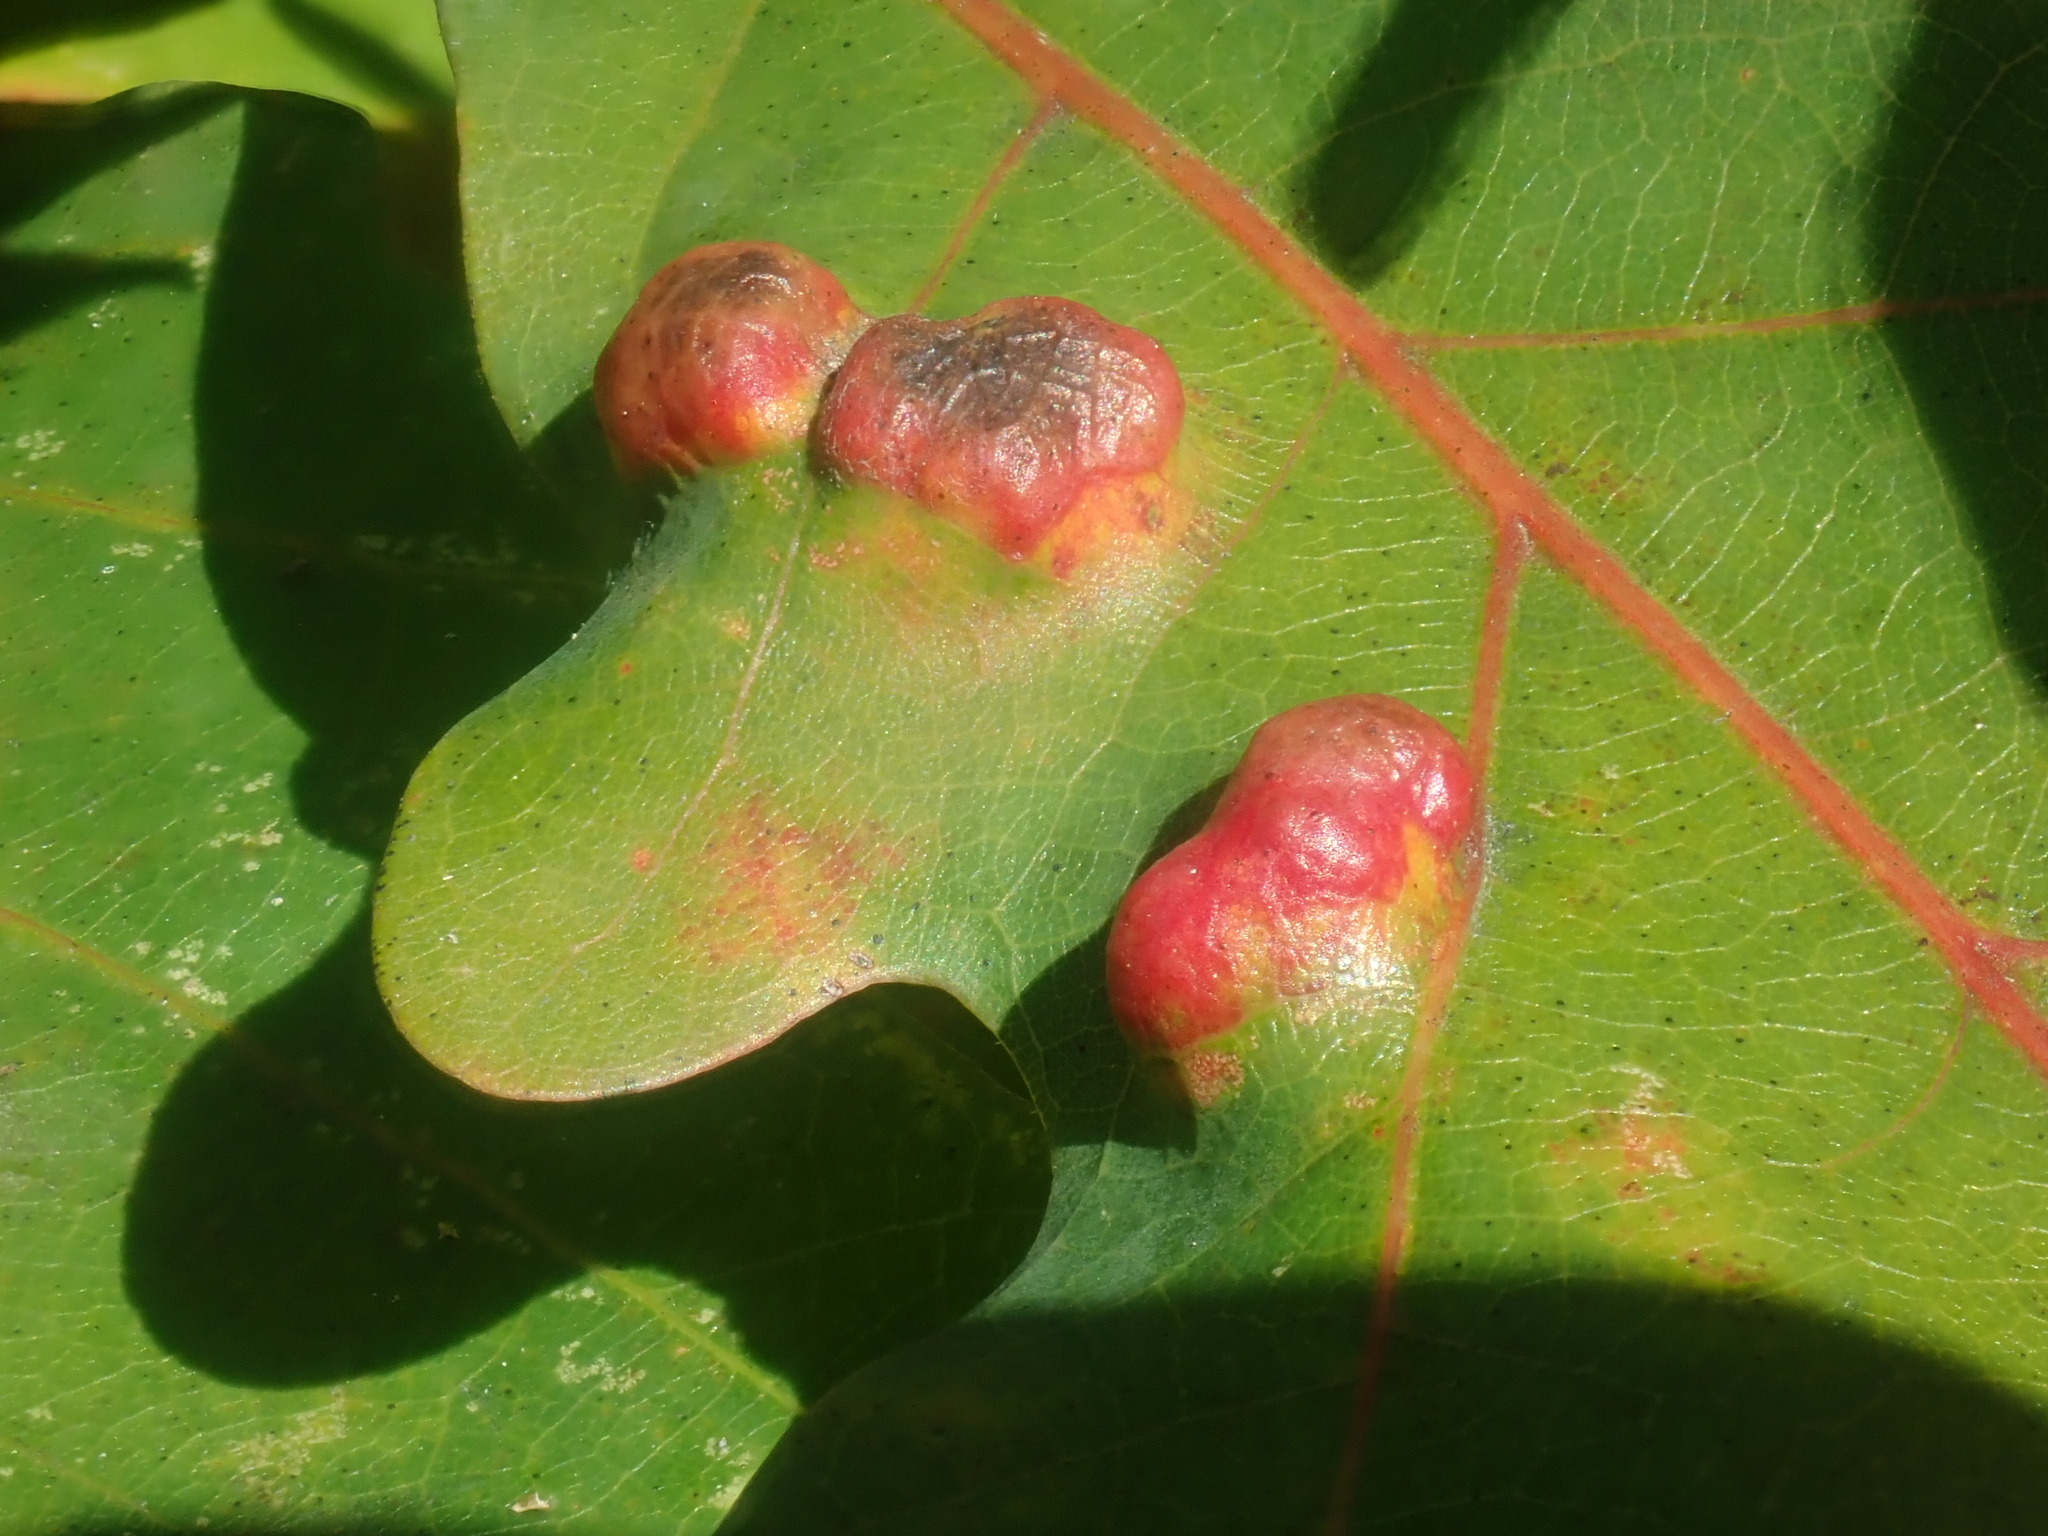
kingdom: Animalia
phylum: Arthropoda
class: Arachnida
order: Trombidiformes
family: Eriophyidae
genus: Aceria
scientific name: Aceria
